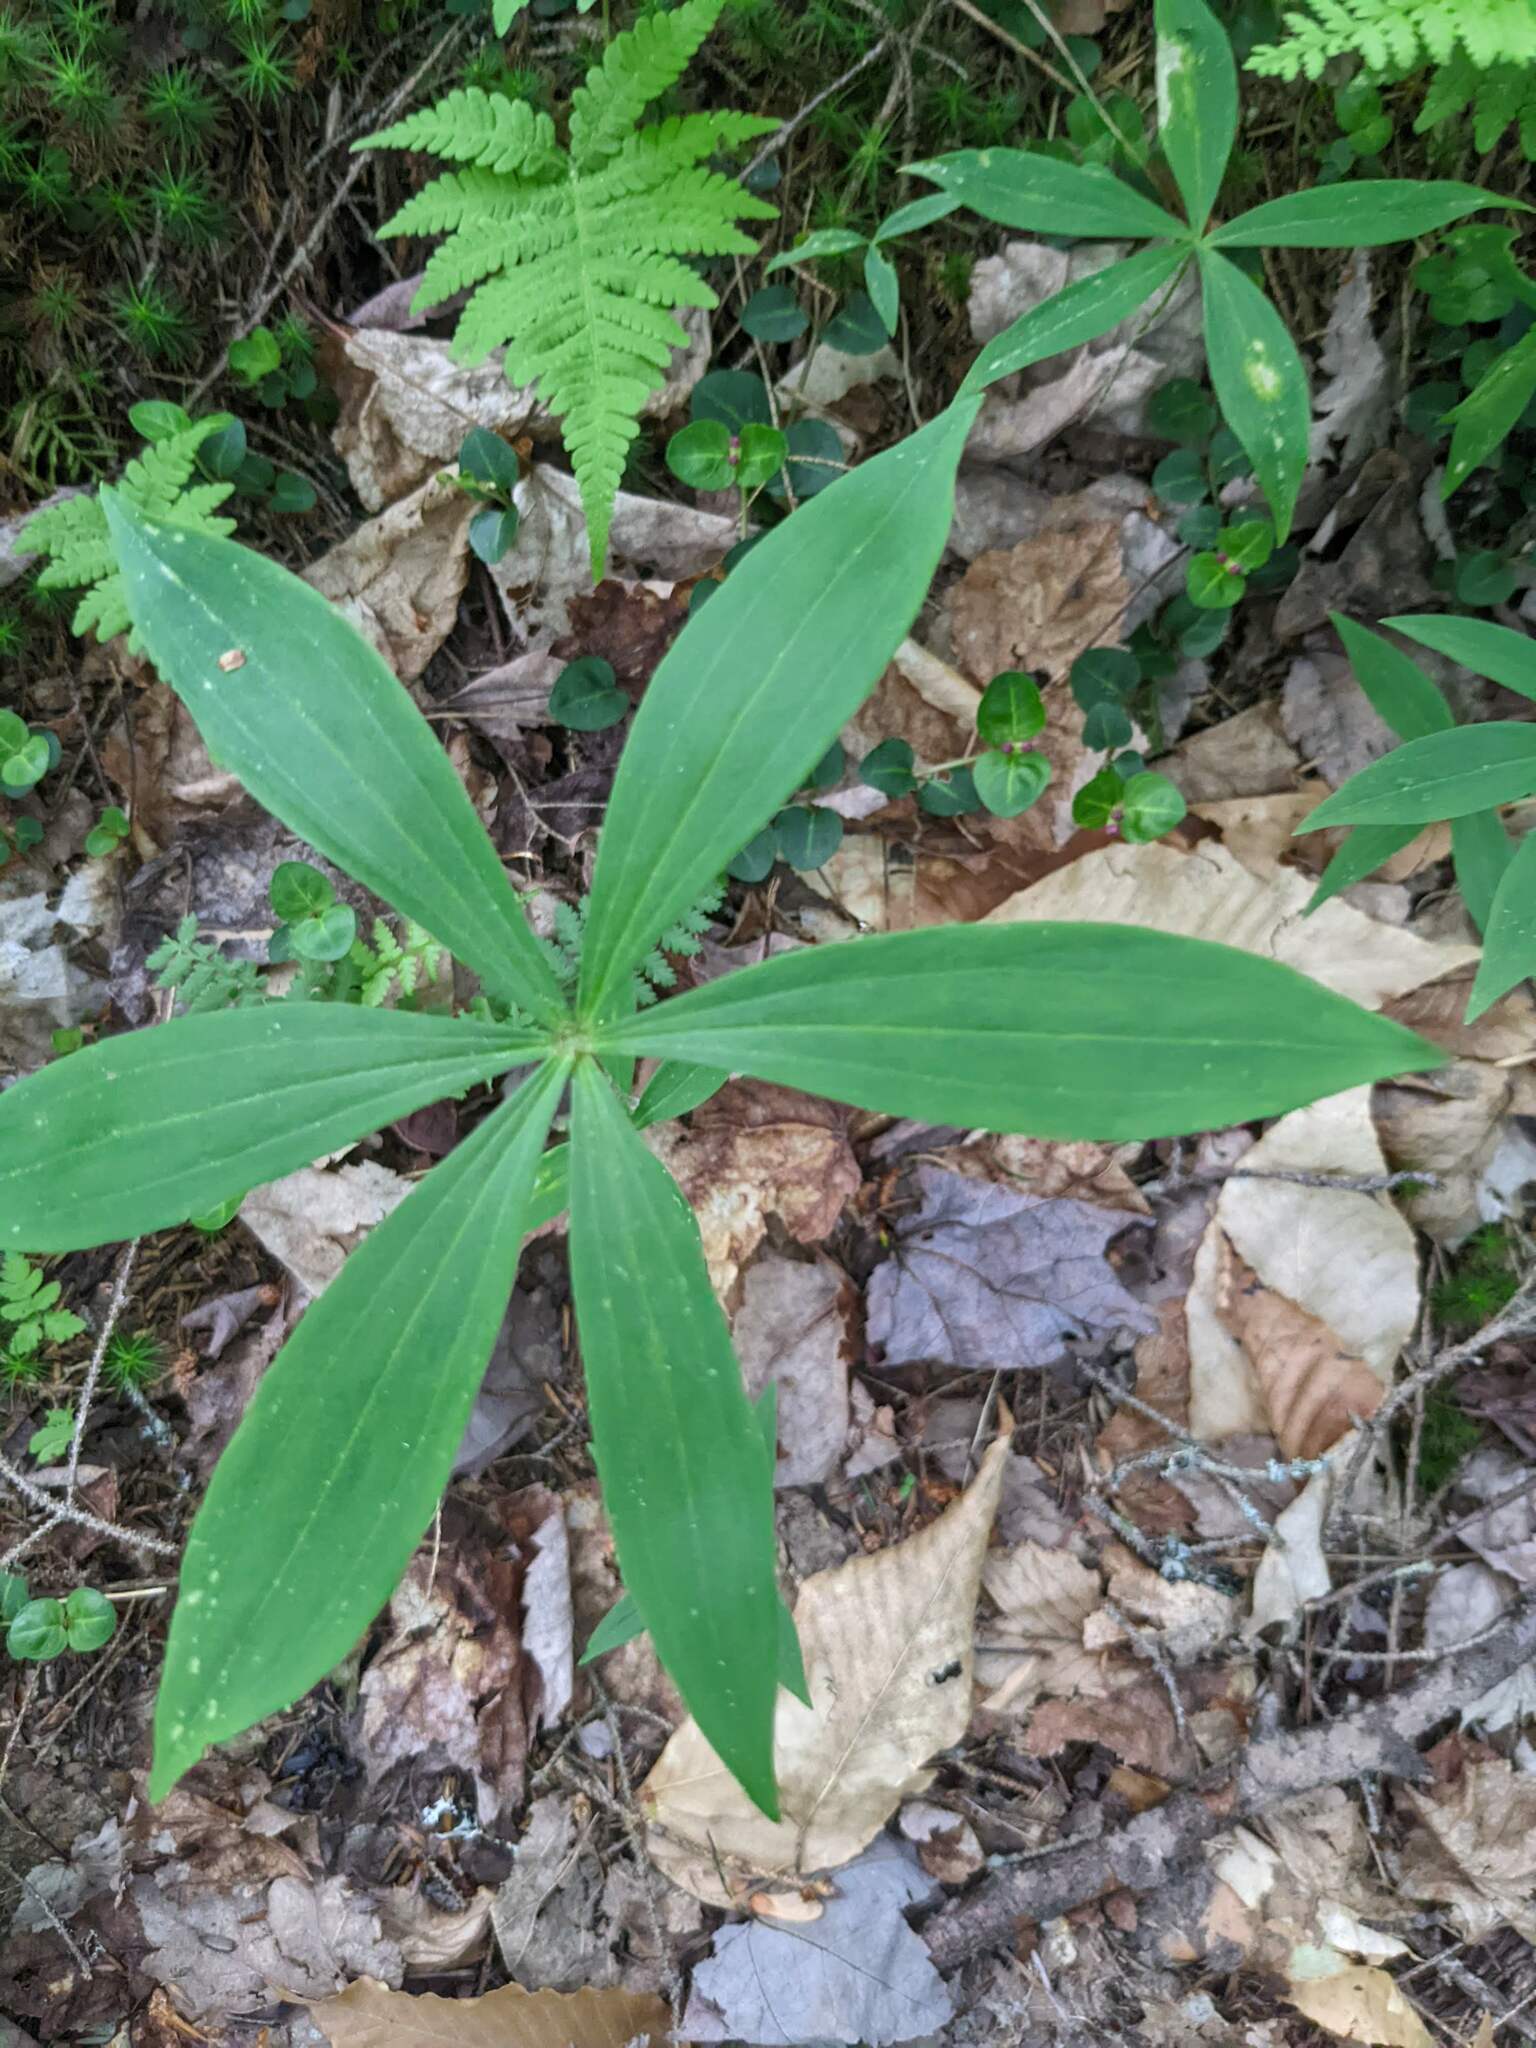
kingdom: Plantae
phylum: Tracheophyta
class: Liliopsida
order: Liliales
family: Liliaceae
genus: Medeola
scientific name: Medeola virginiana
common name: Indian cucumber-root
